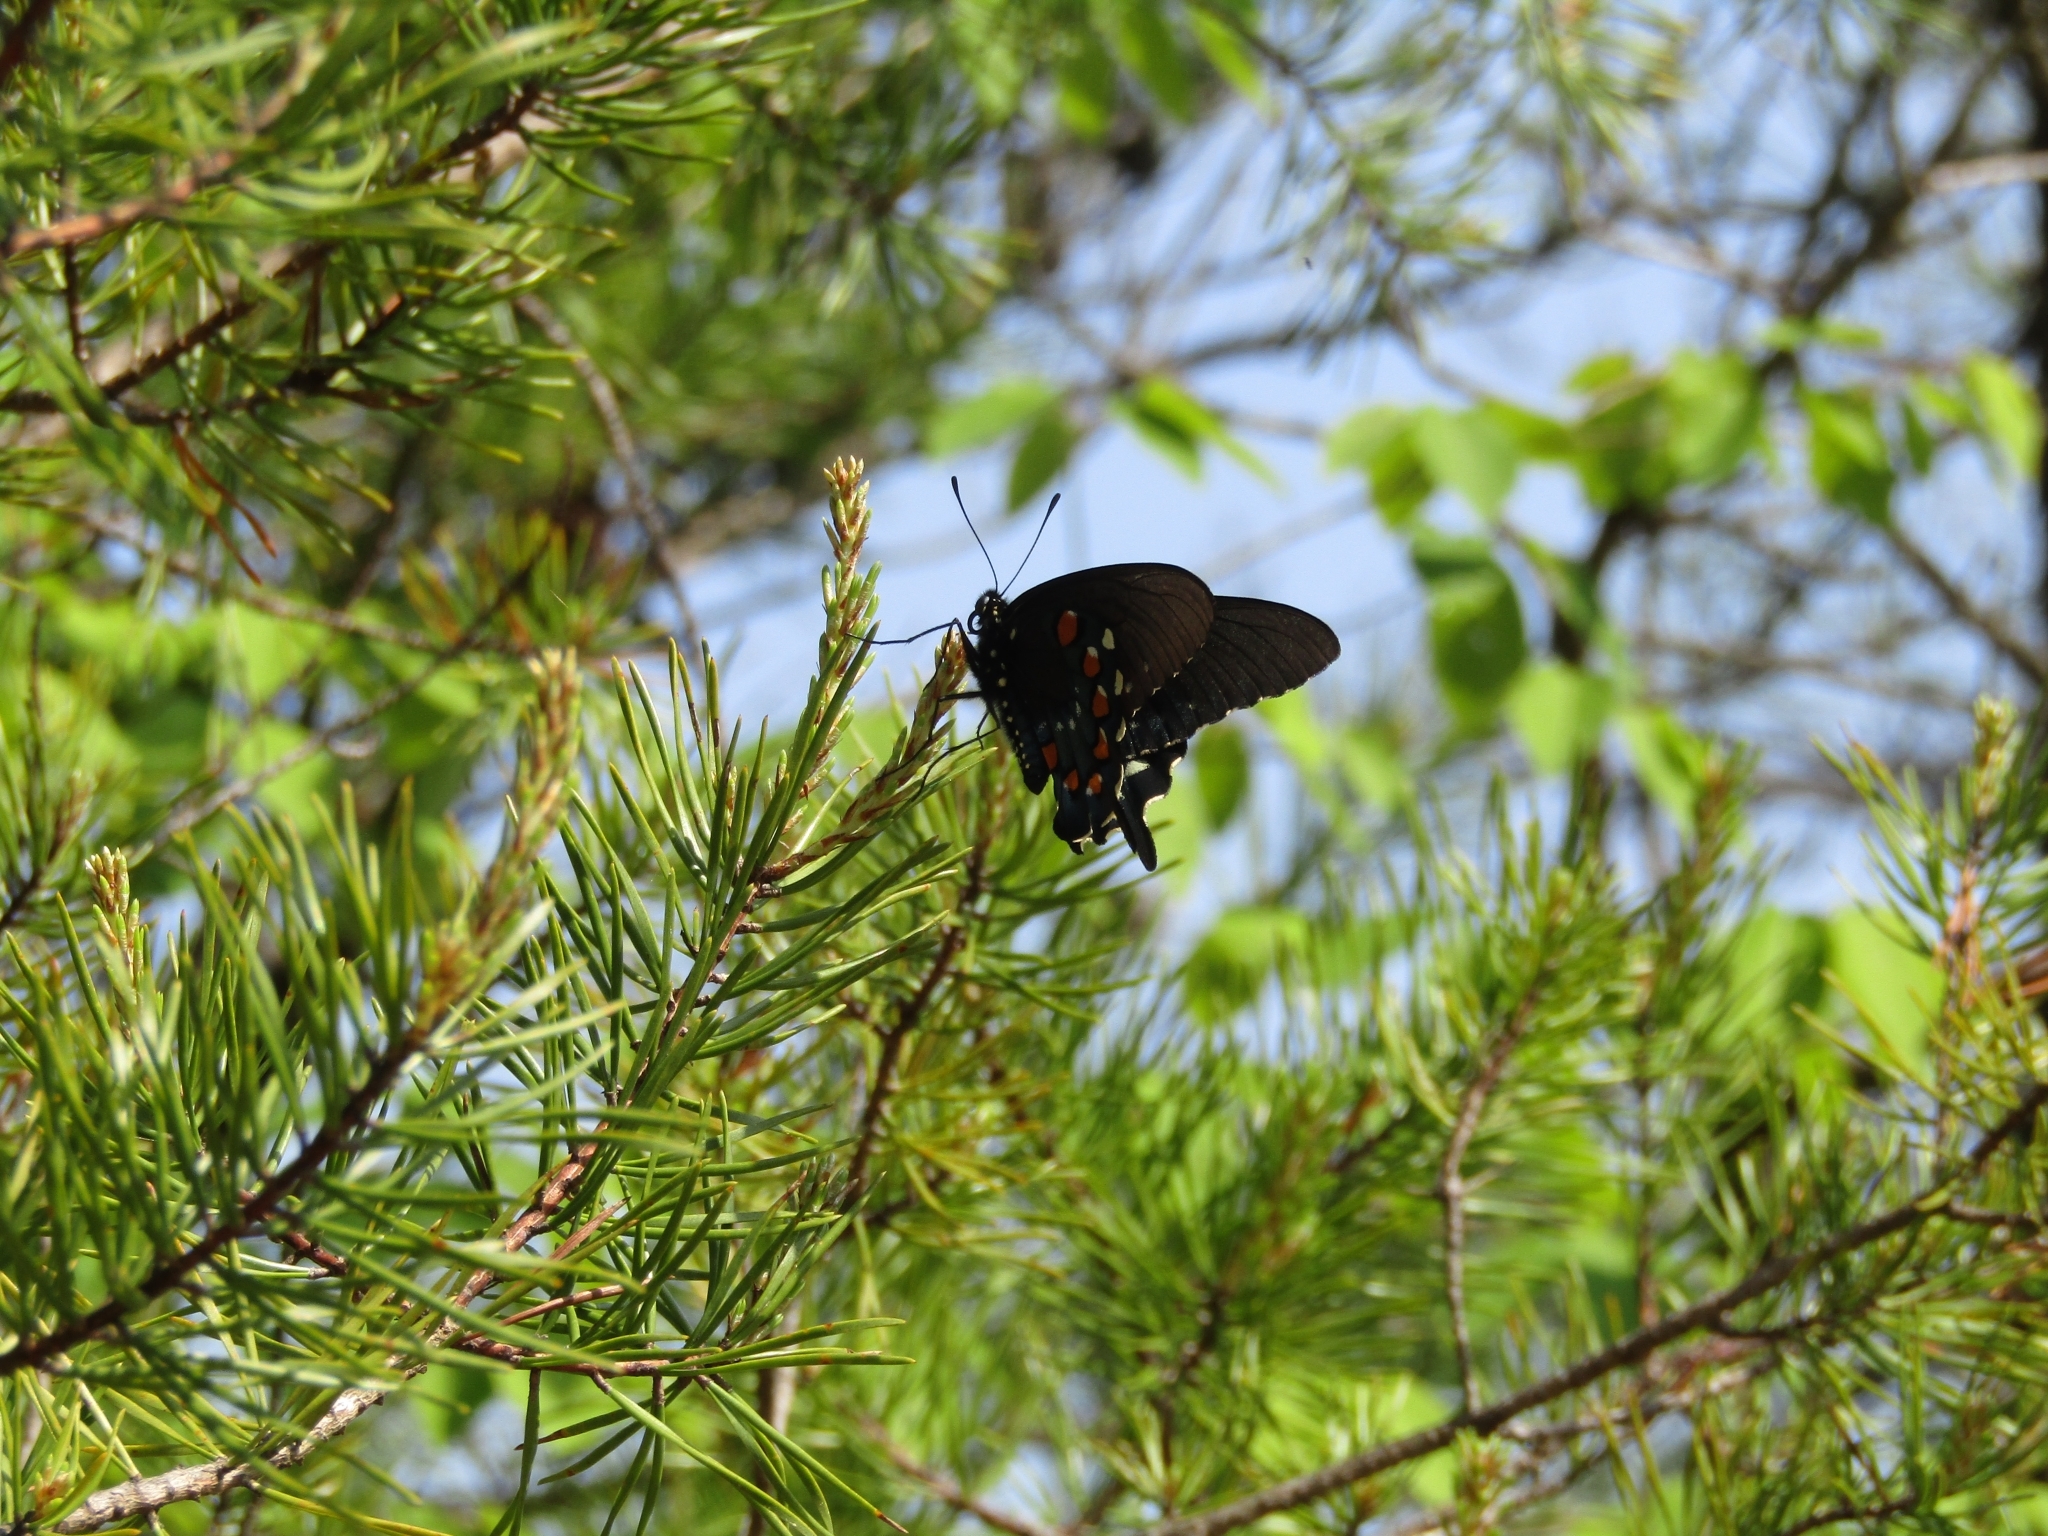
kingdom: Animalia
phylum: Arthropoda
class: Insecta
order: Lepidoptera
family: Papilionidae
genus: Battus
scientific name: Battus philenor
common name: Pipevine swallowtail
